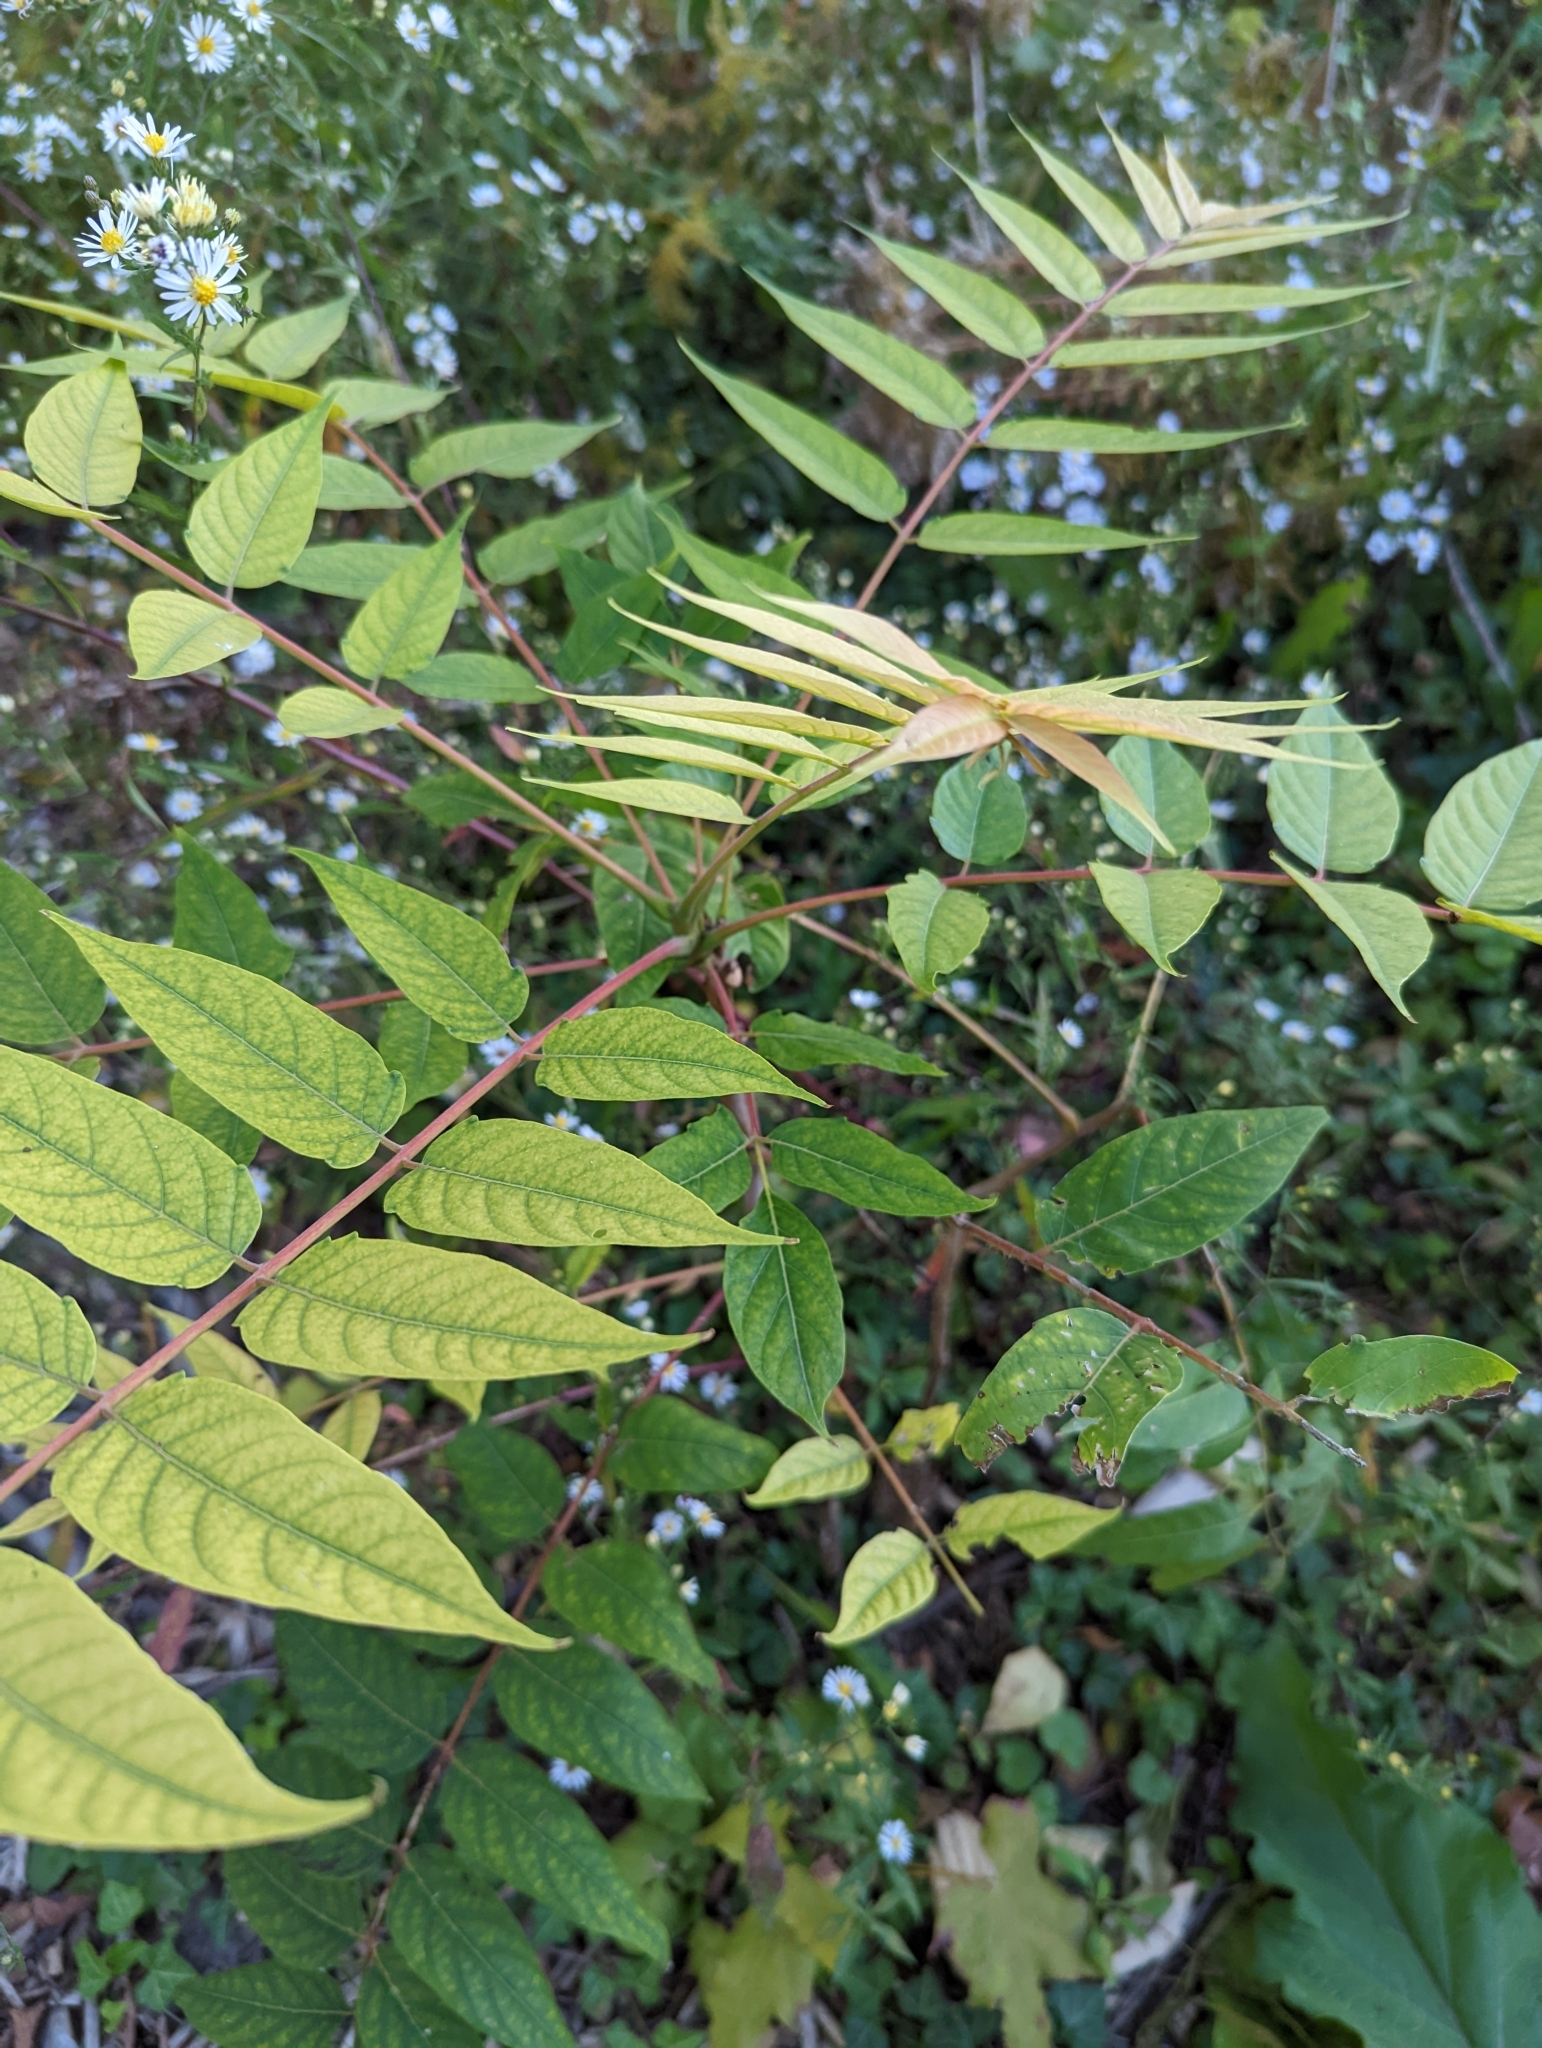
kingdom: Plantae
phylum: Tracheophyta
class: Magnoliopsida
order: Sapindales
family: Simaroubaceae
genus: Ailanthus
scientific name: Ailanthus altissima
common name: Tree-of-heaven
